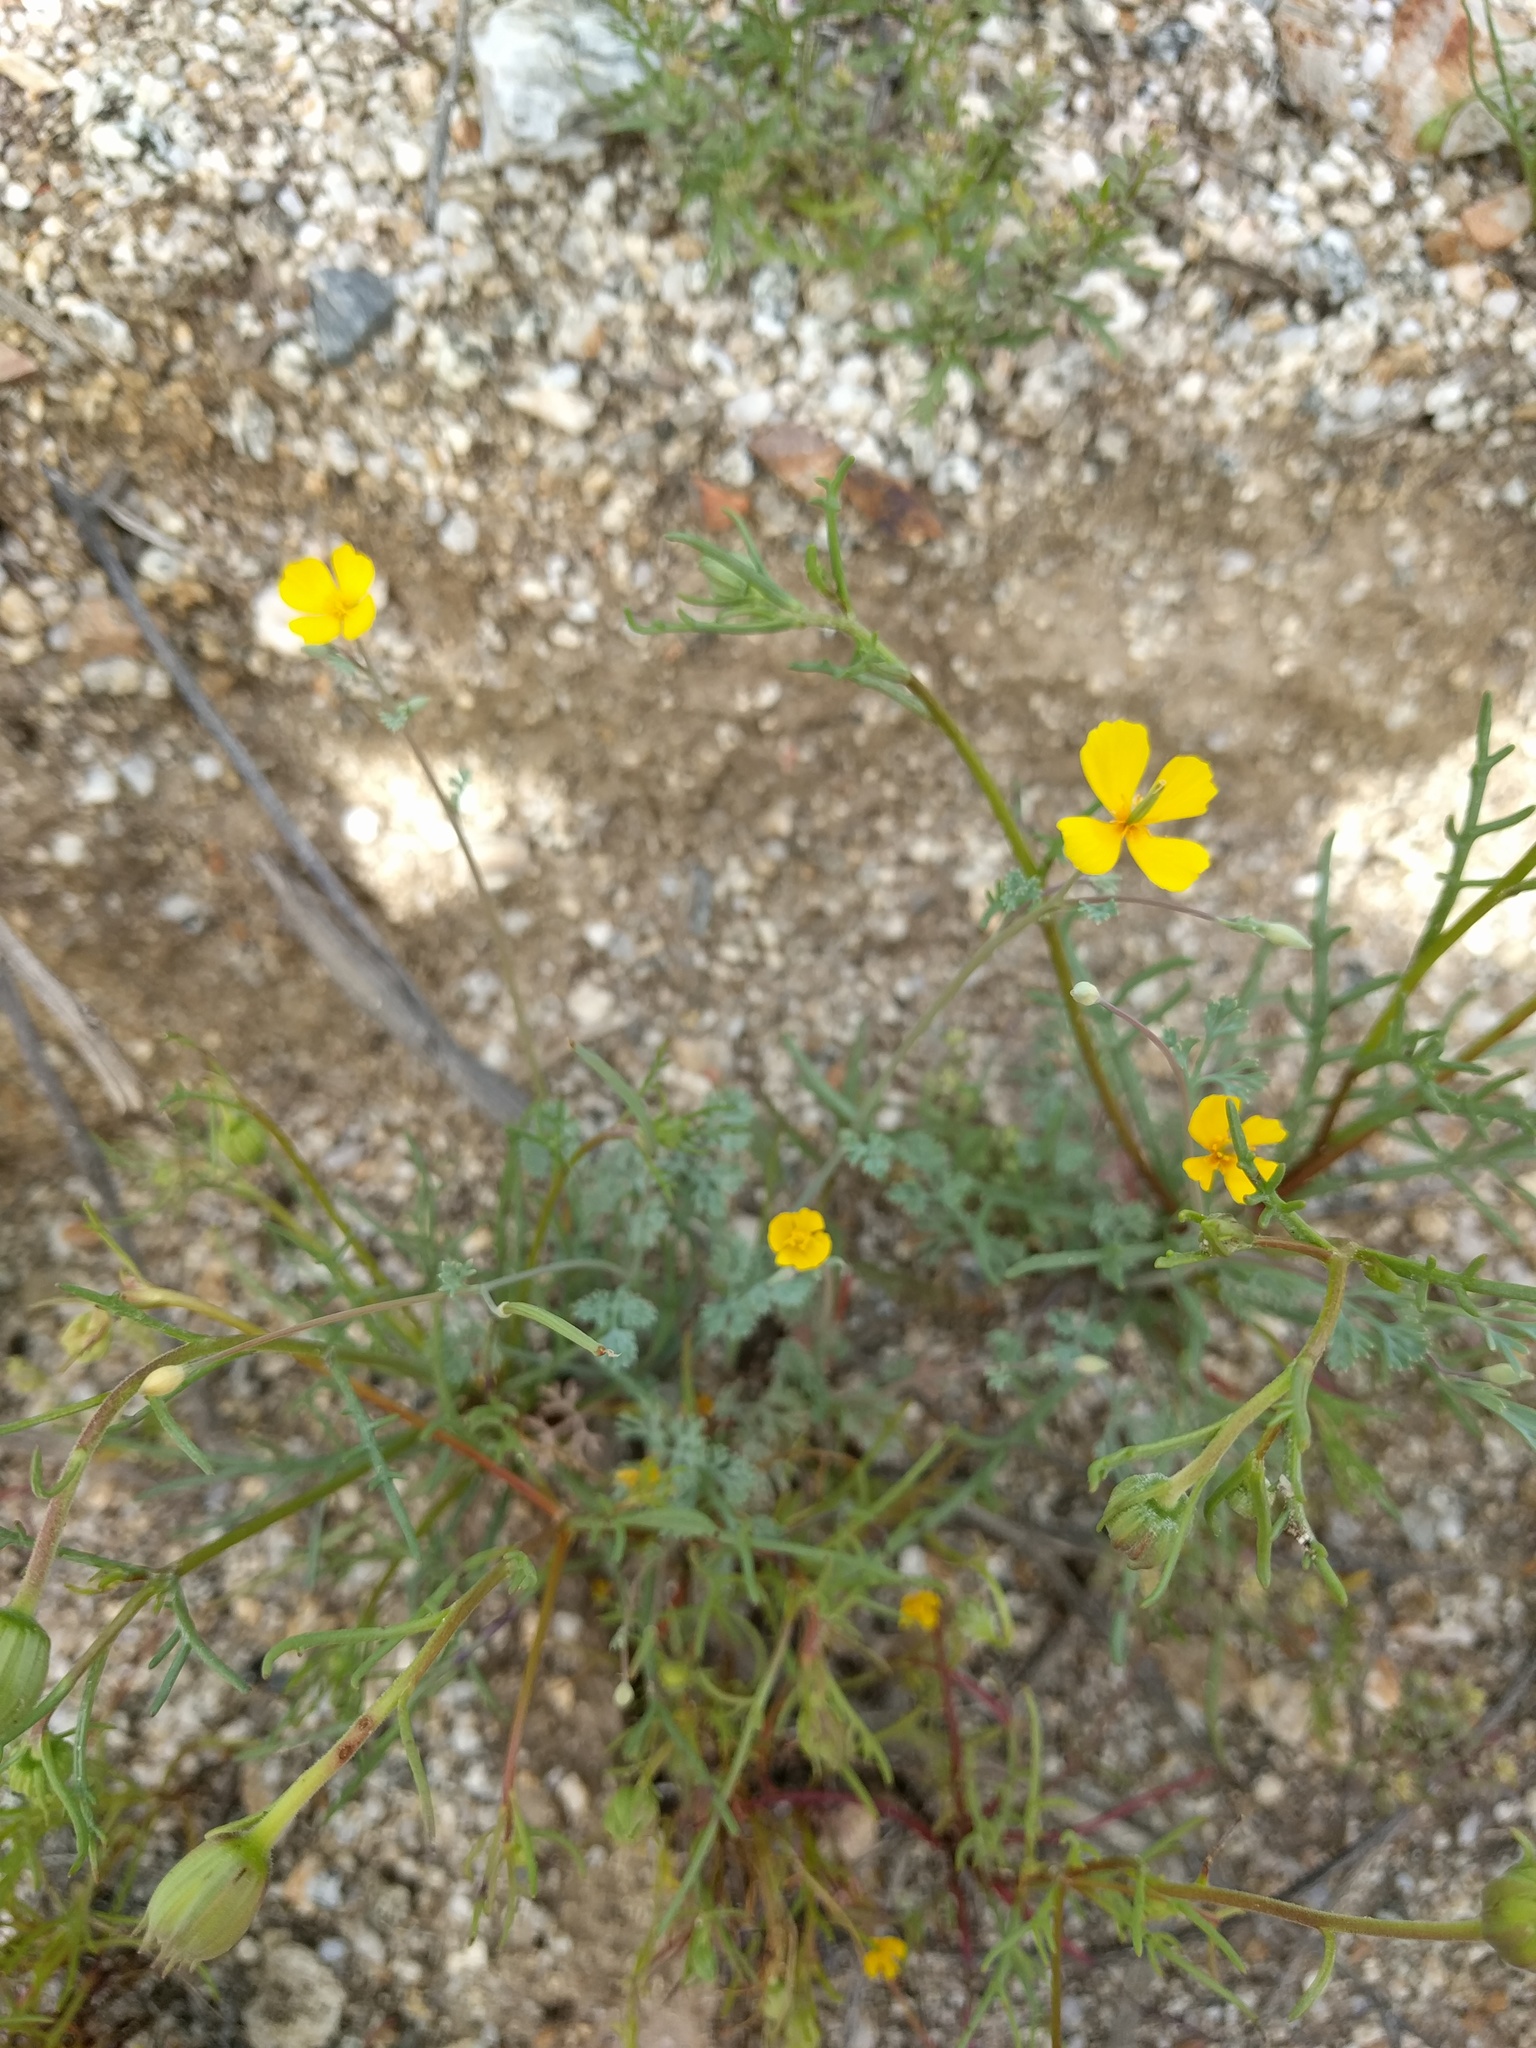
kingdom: Plantae
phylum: Tracheophyta
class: Magnoliopsida
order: Ranunculales
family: Papaveraceae
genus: Eschscholzia
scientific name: Eschscholzia minutiflora
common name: Small-flower california-poppy
